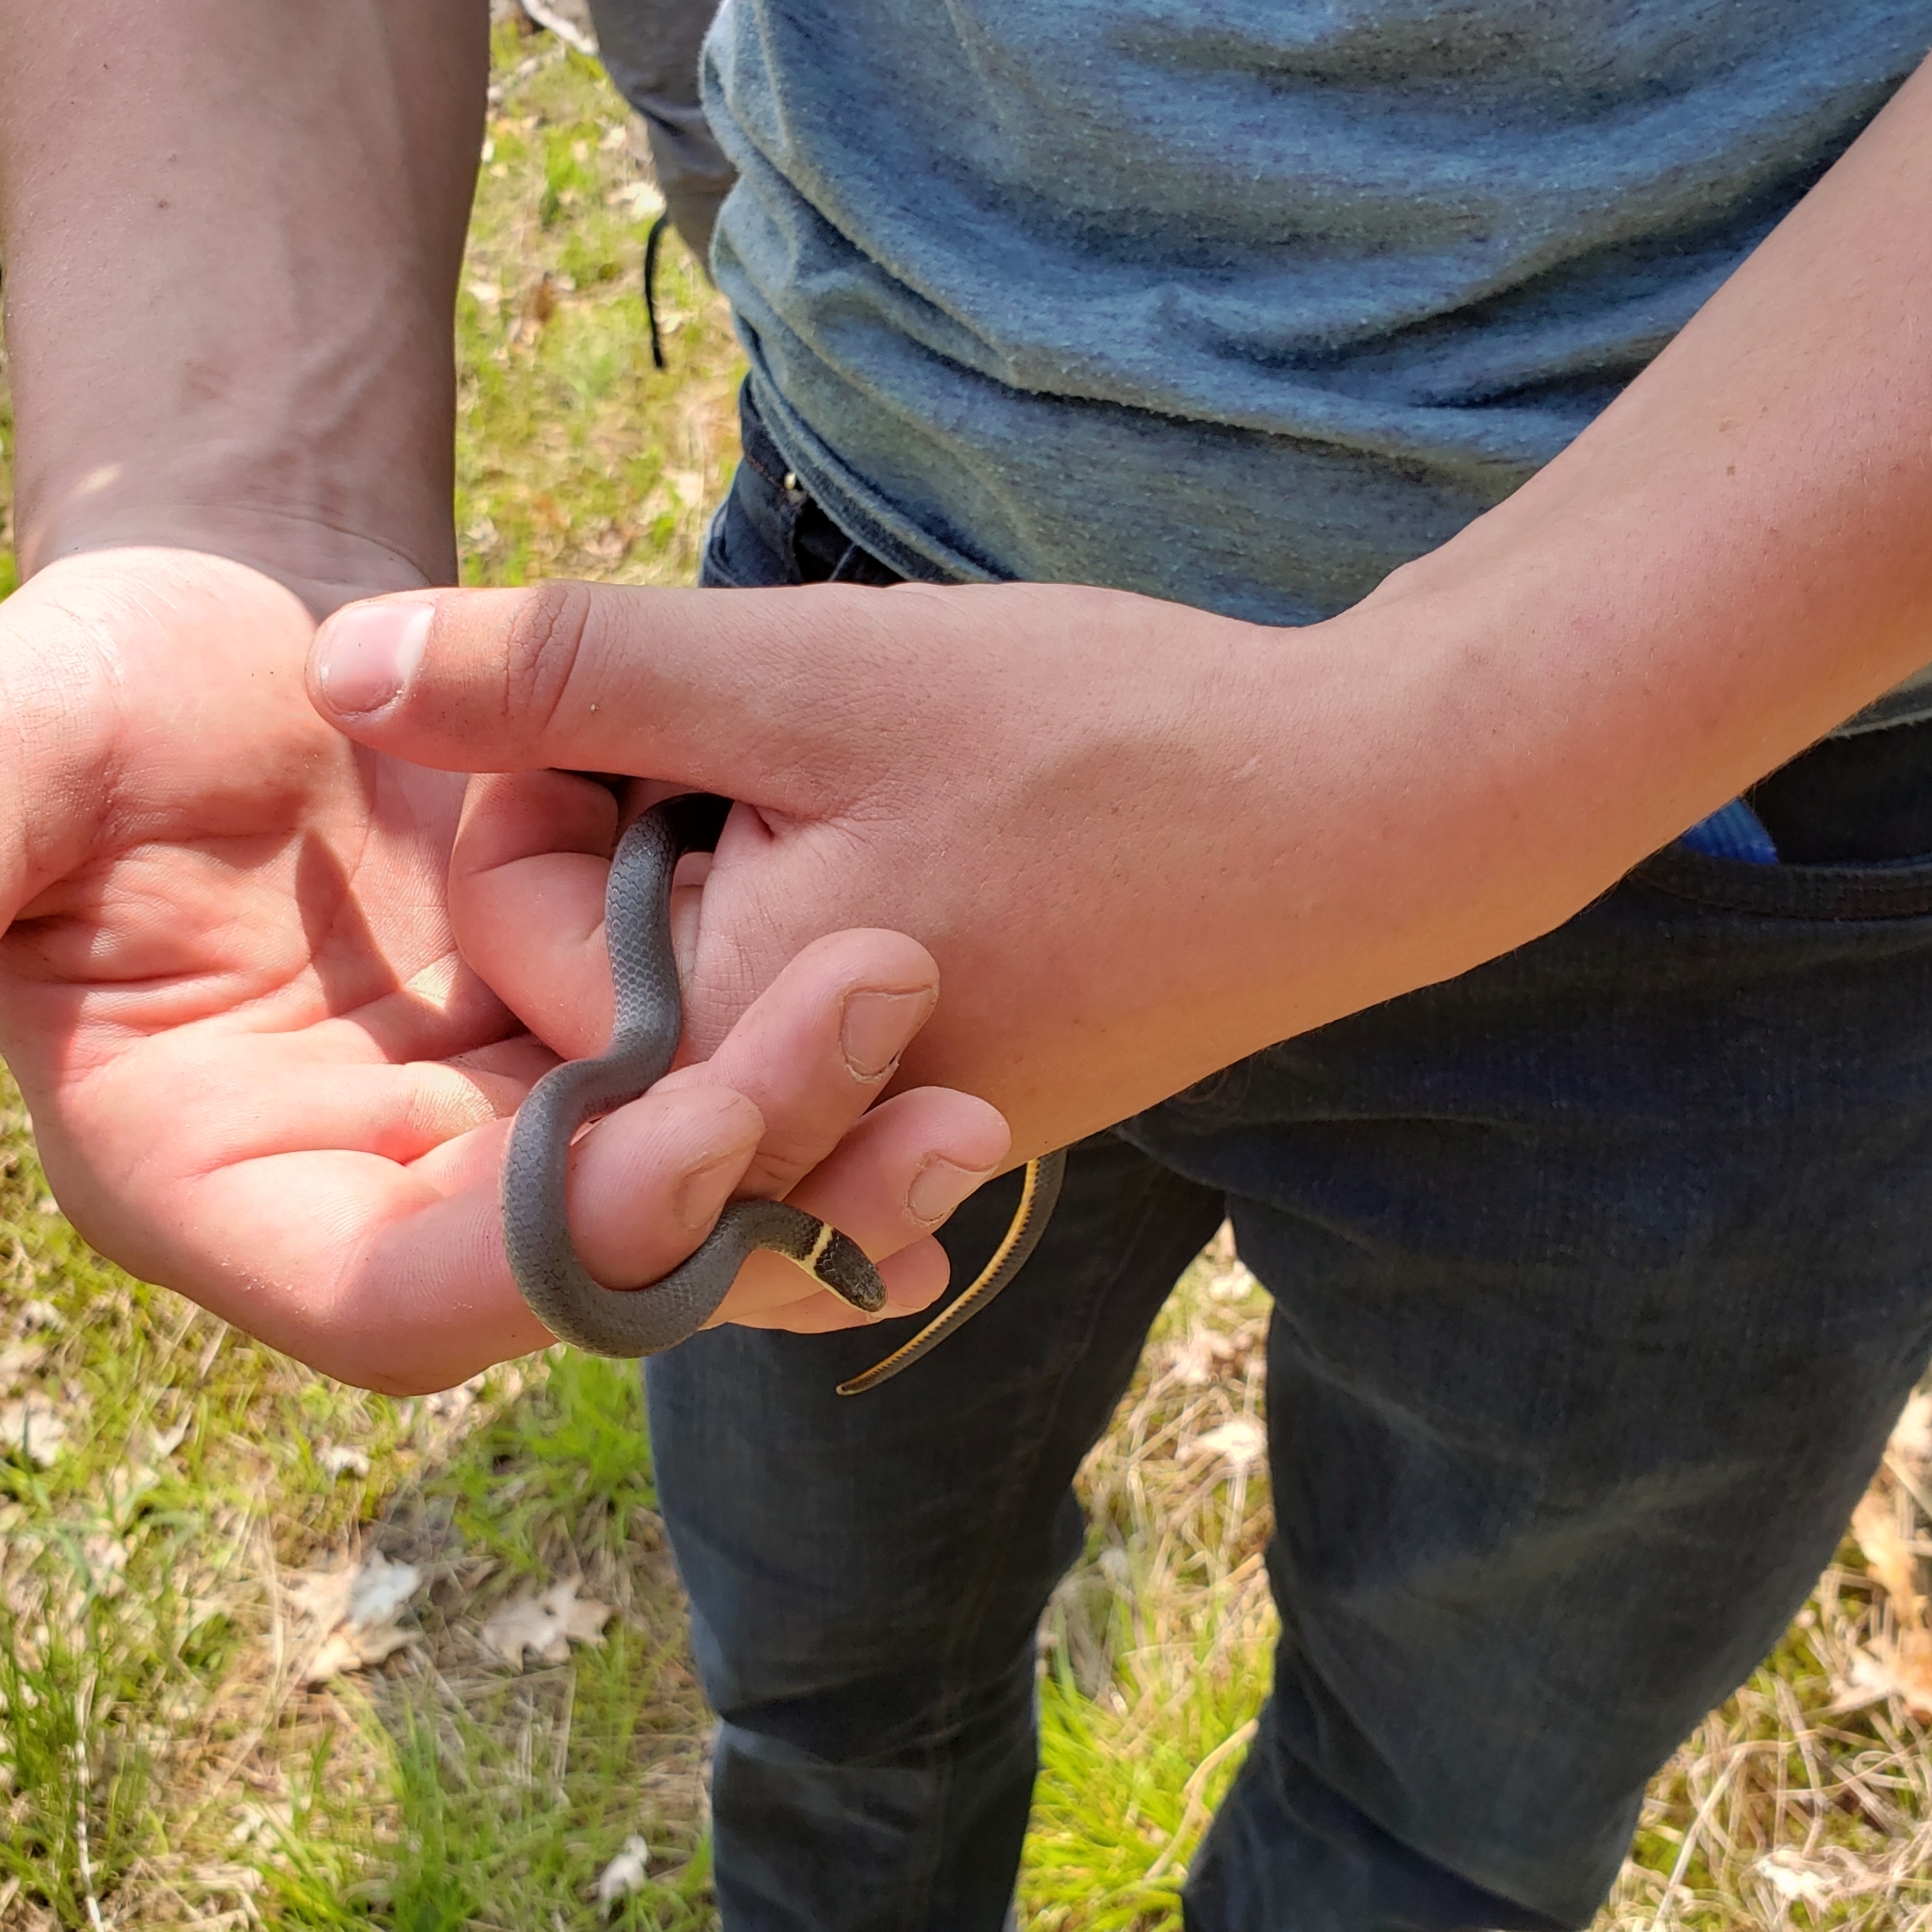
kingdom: Animalia
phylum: Chordata
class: Squamata
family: Colubridae
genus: Diadophis
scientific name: Diadophis punctatus
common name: Ringneck snake
